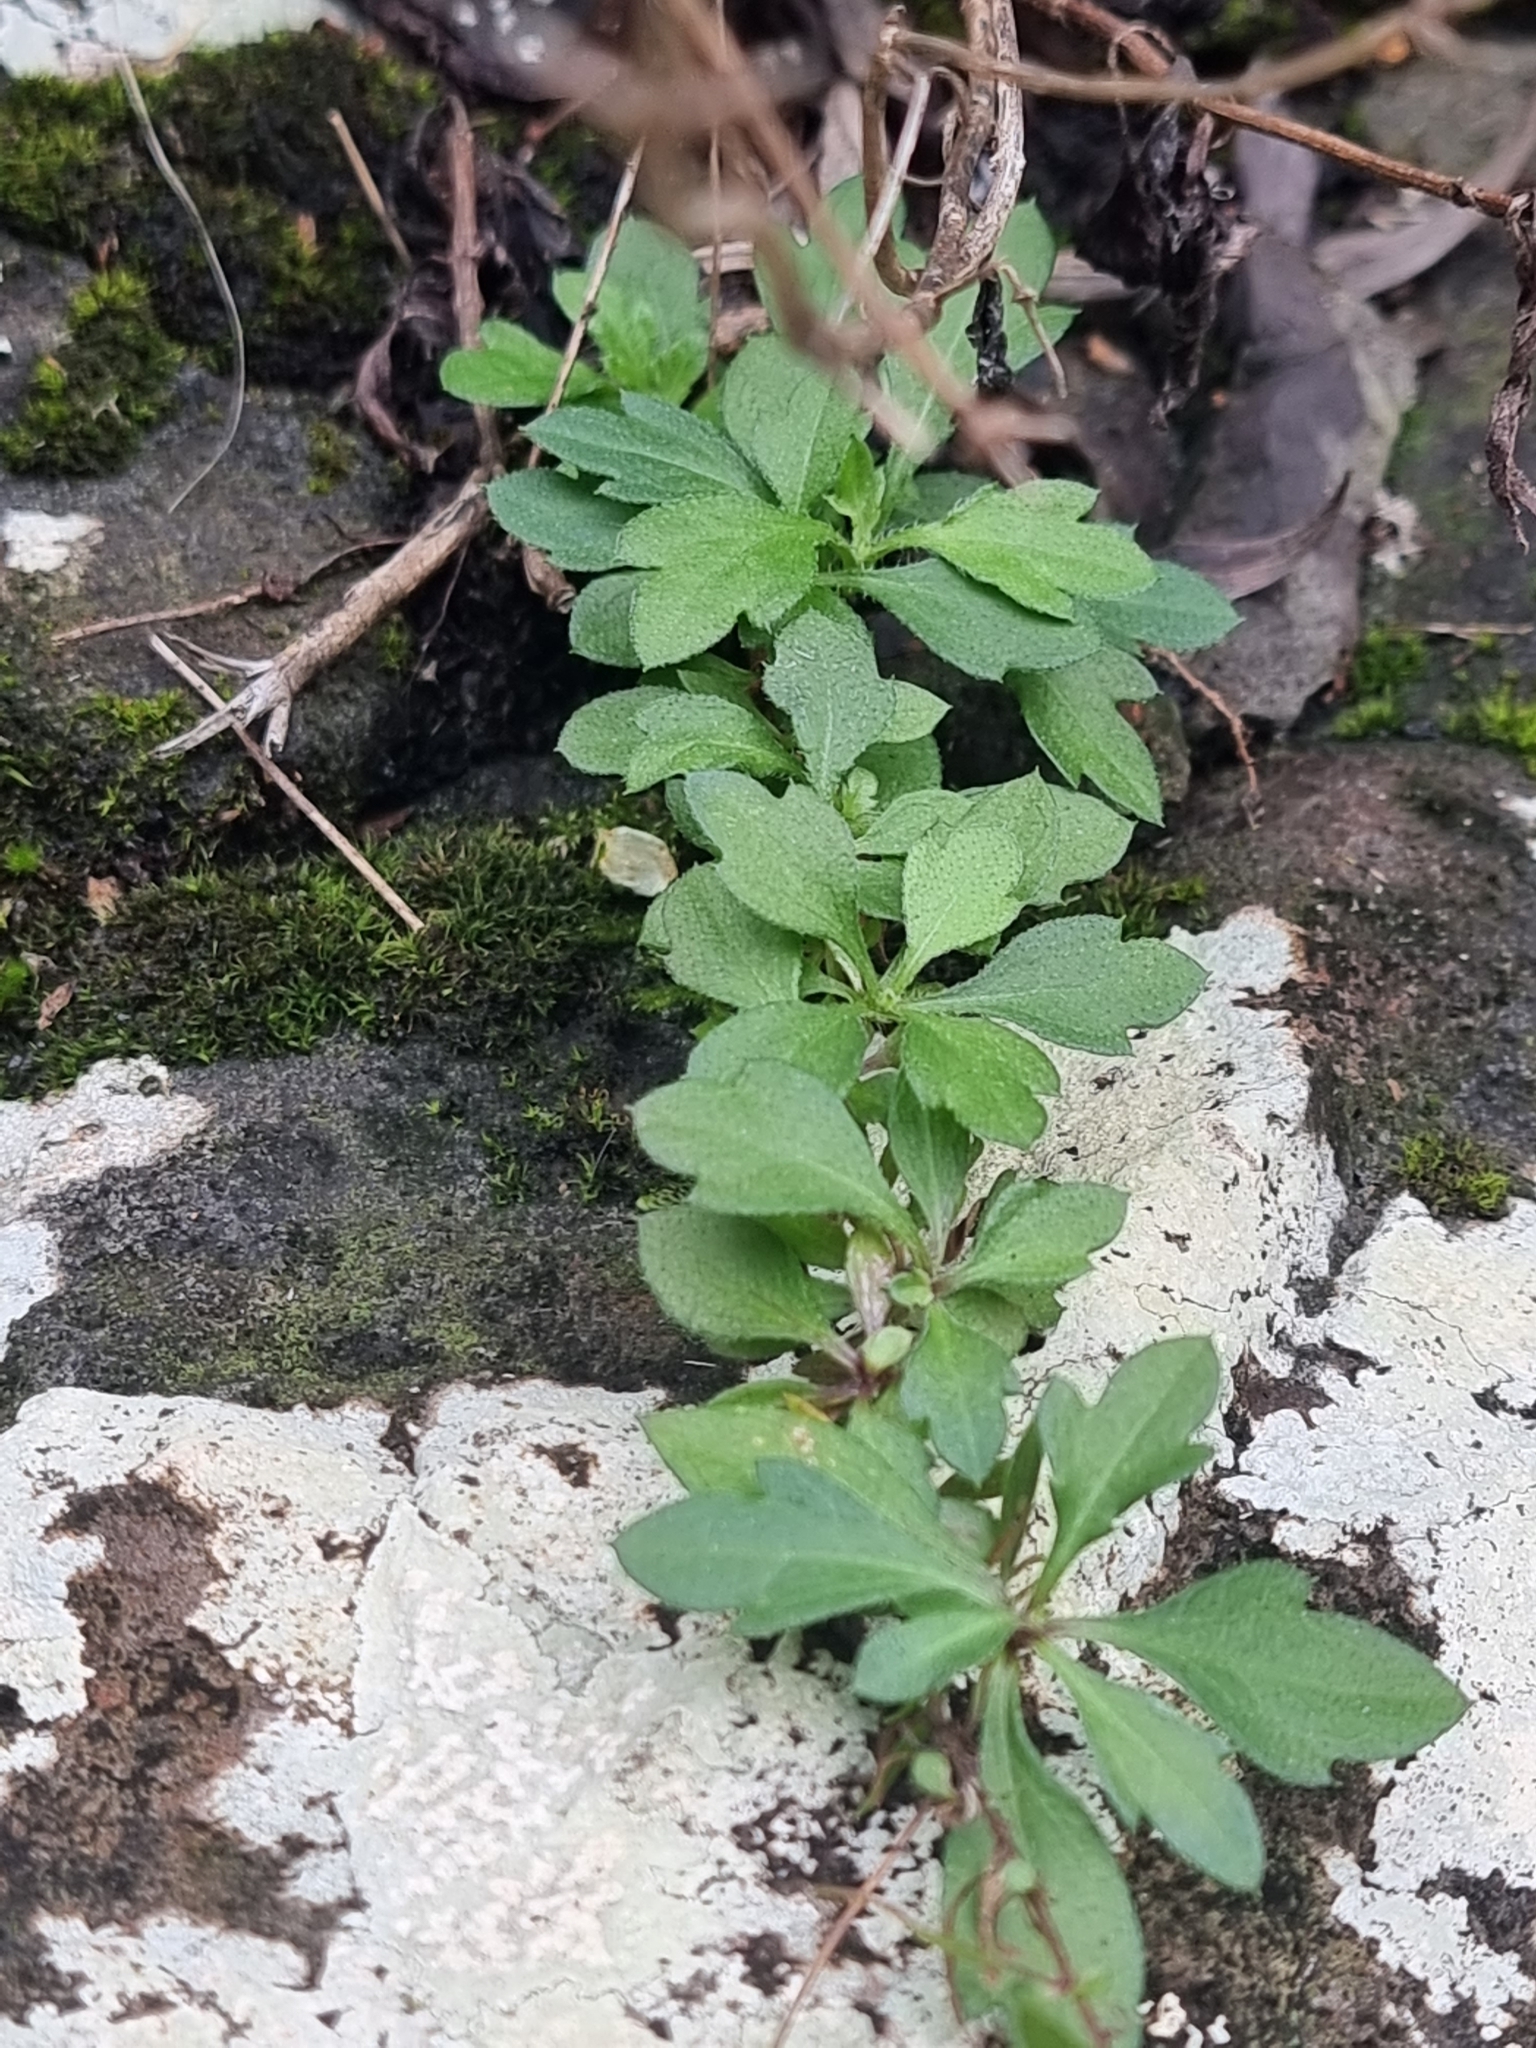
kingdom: Plantae
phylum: Tracheophyta
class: Magnoliopsida
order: Asterales
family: Asteraceae
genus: Erigeron
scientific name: Erigeron karvinskianus
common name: Mexican fleabane
